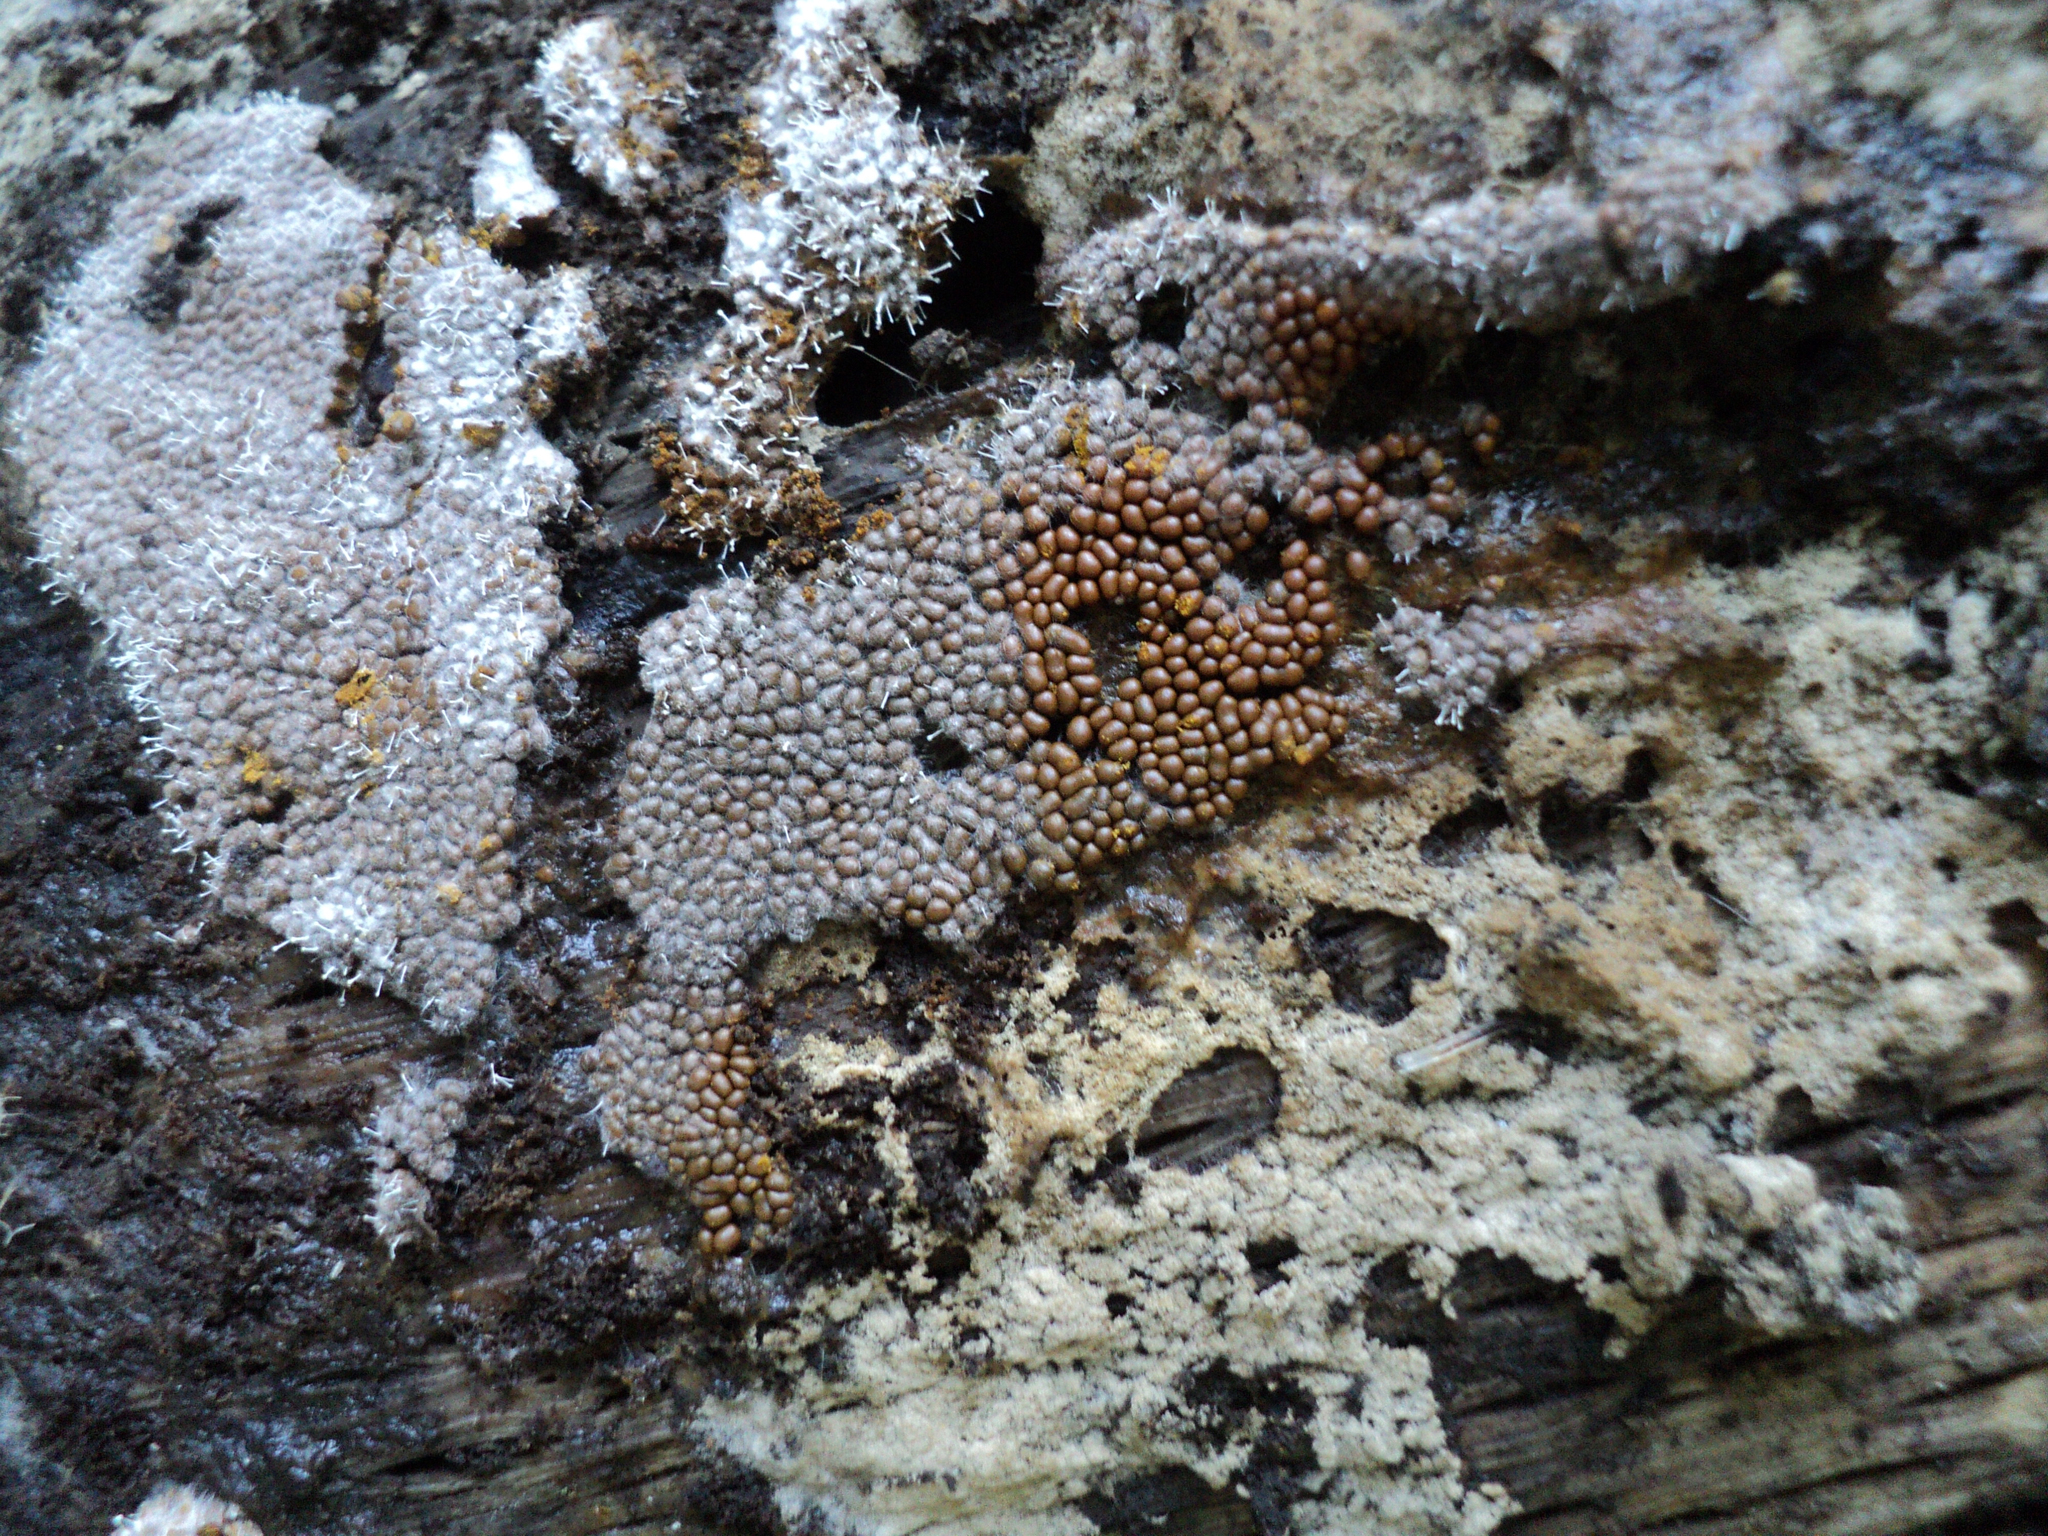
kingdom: Fungi
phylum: Ascomycota
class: Sordariomycetes
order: Hypocreales
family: Ophiocordycipitaceae
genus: Polycephalomyces
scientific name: Polycephalomyces tomentosus
